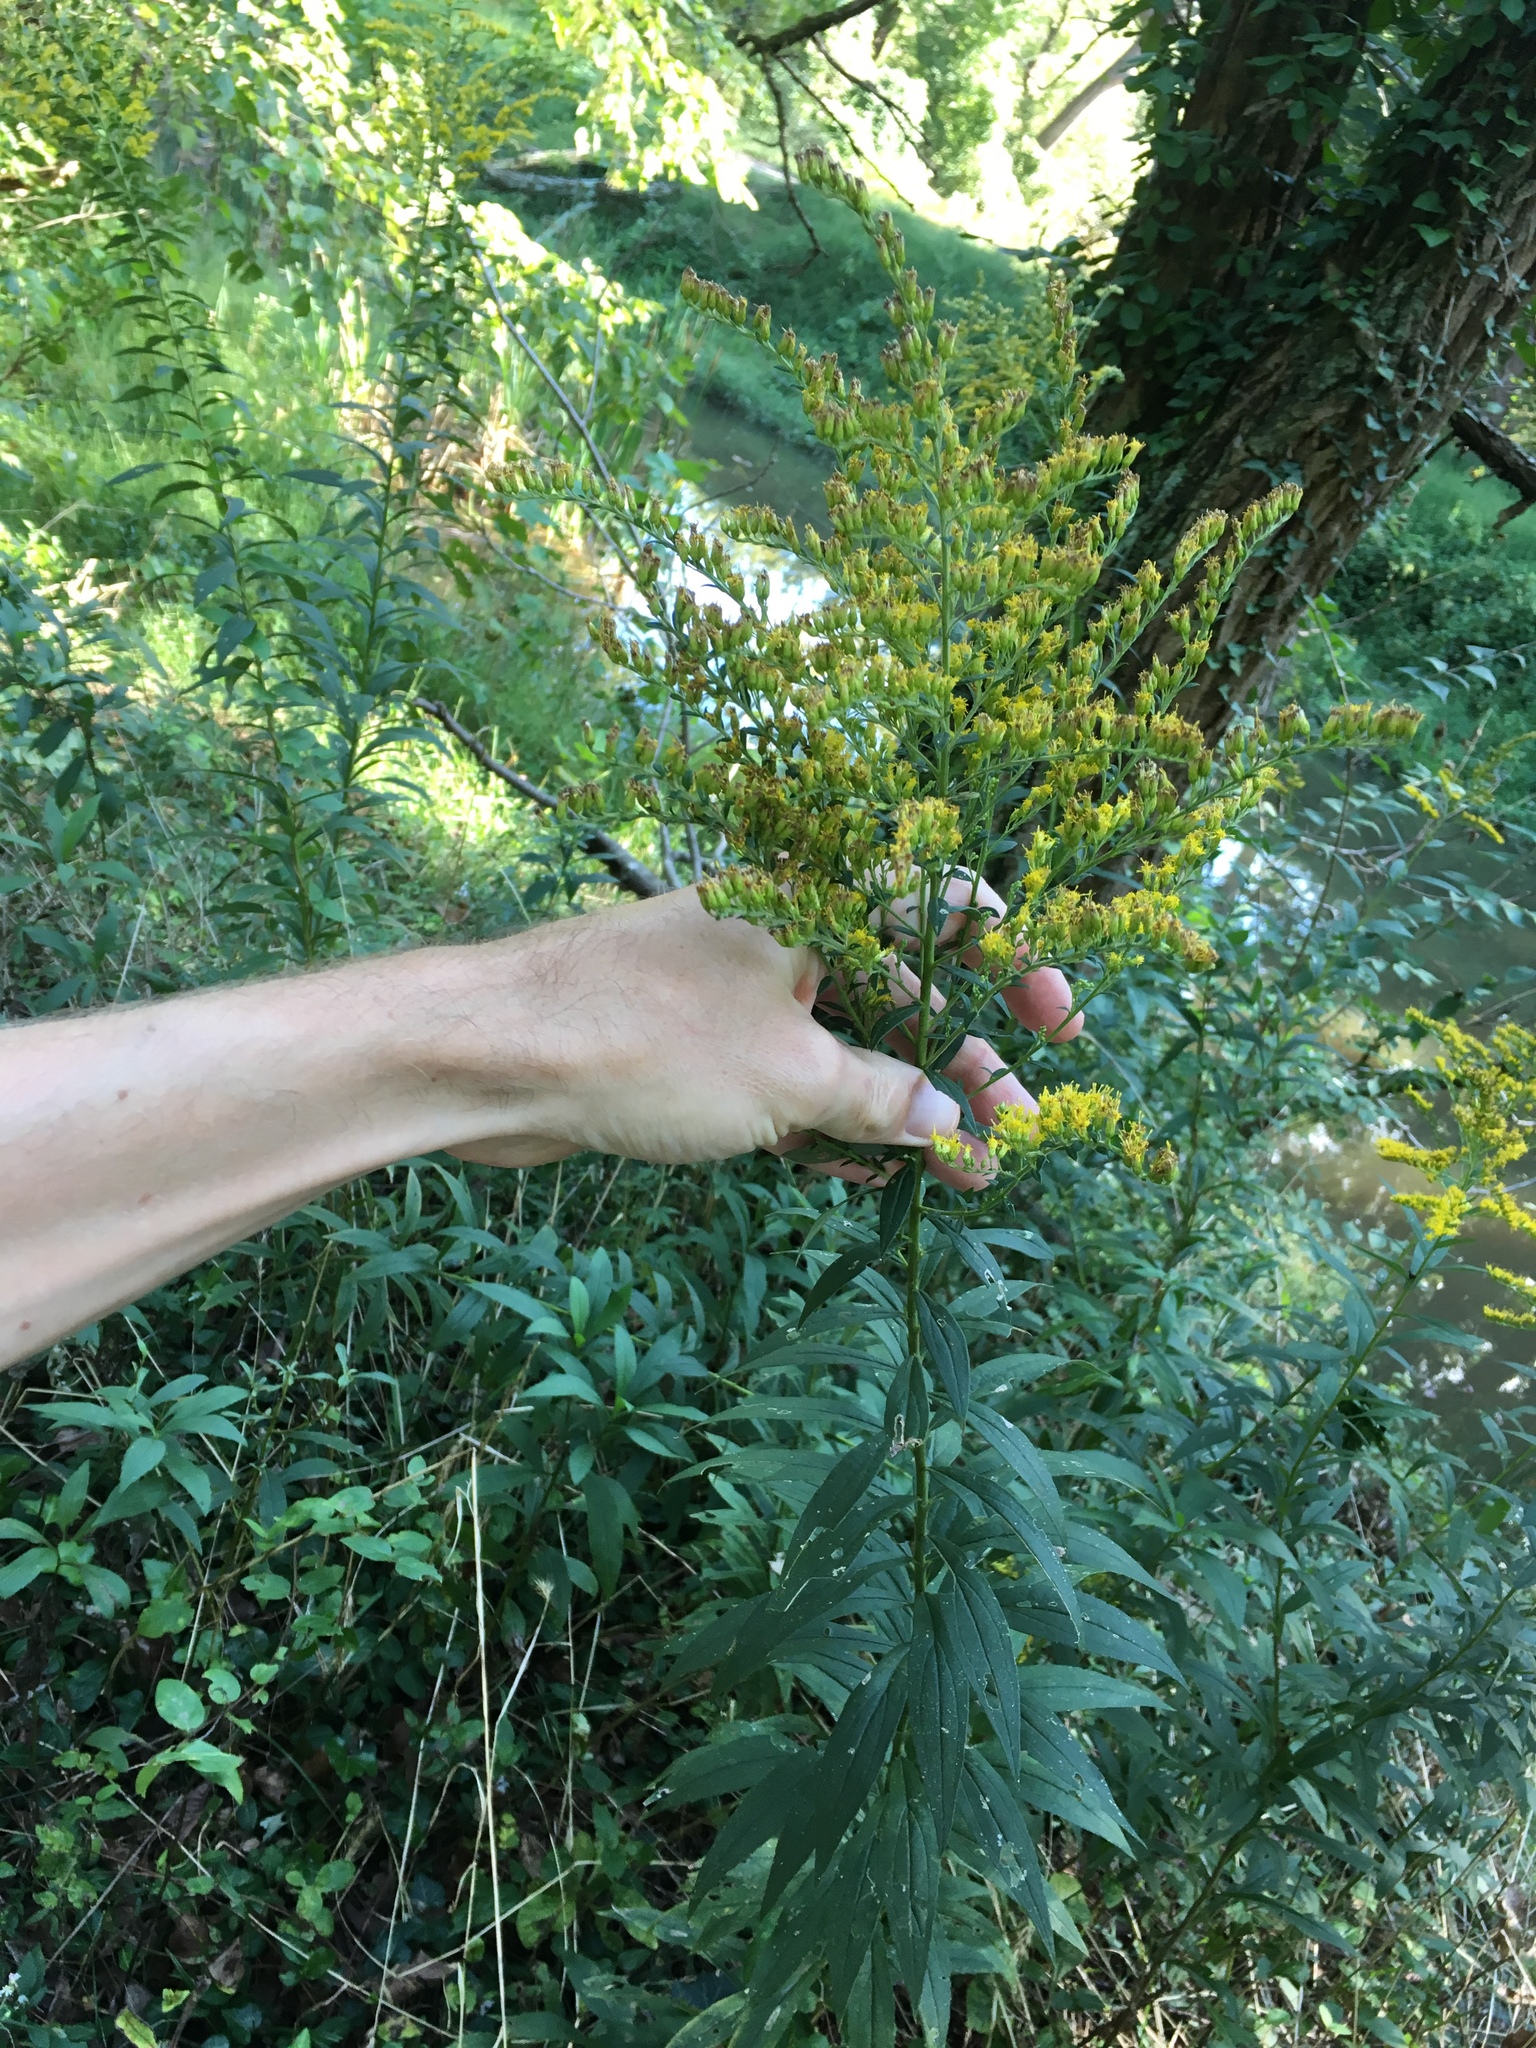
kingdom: Plantae
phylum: Tracheophyta
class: Magnoliopsida
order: Asterales
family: Asteraceae
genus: Solidago
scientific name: Solidago altissima
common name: Late goldenrod
